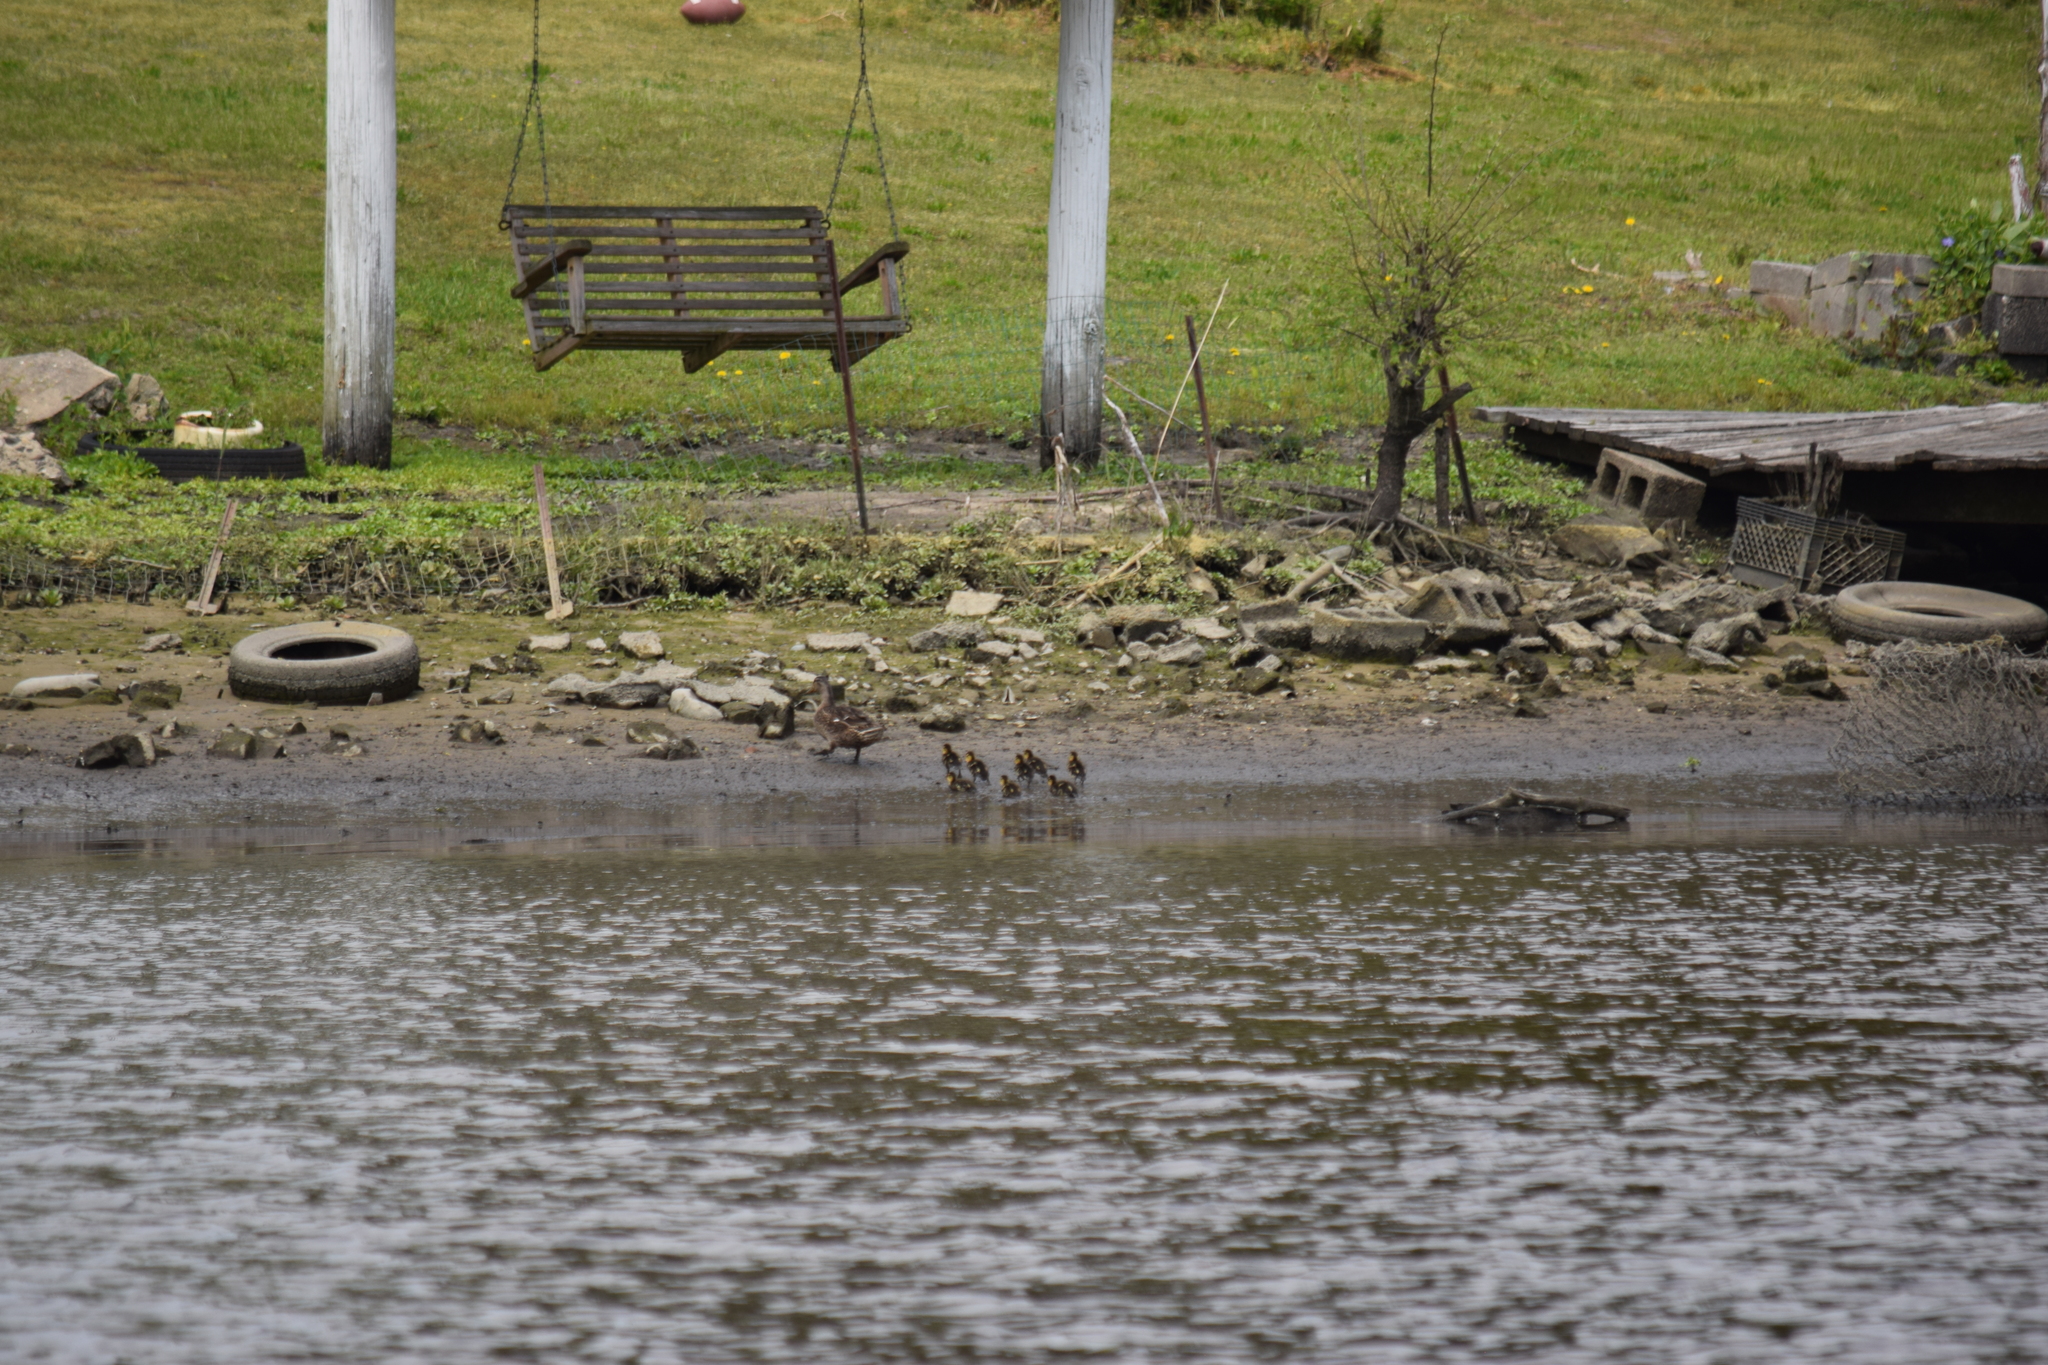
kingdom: Animalia
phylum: Chordata
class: Aves
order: Anseriformes
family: Anatidae
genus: Anas
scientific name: Anas platyrhynchos
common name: Mallard
